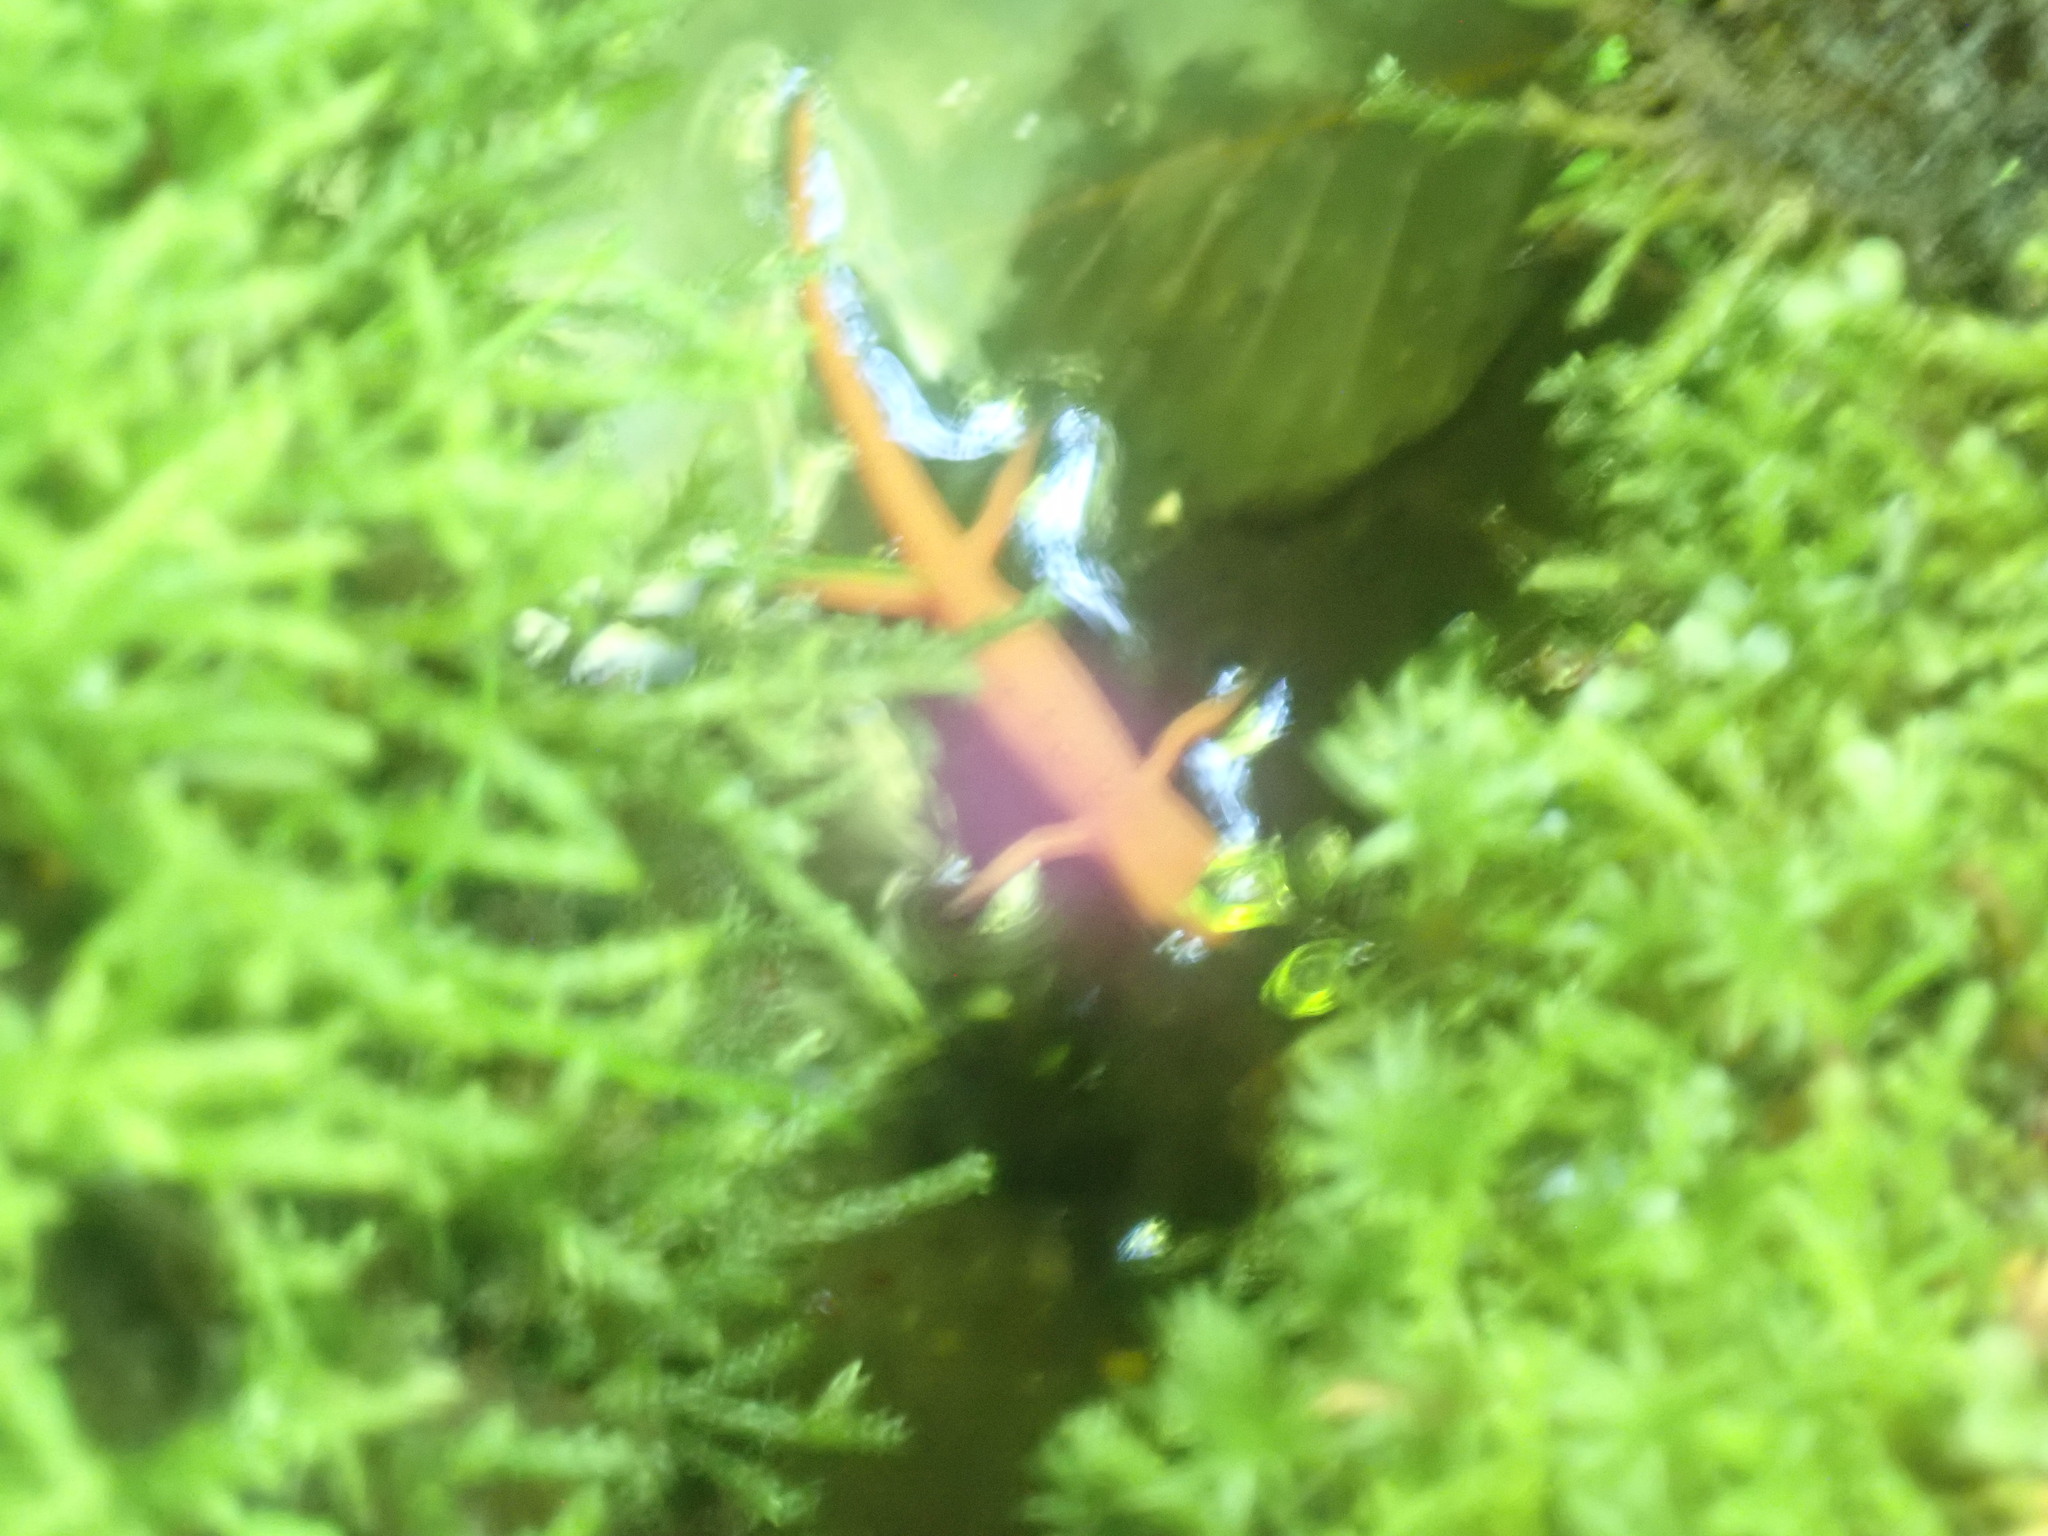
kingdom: Animalia
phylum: Chordata
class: Amphibia
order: Caudata
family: Salamandridae
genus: Notophthalmus
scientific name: Notophthalmus viridescens
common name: Eastern newt
